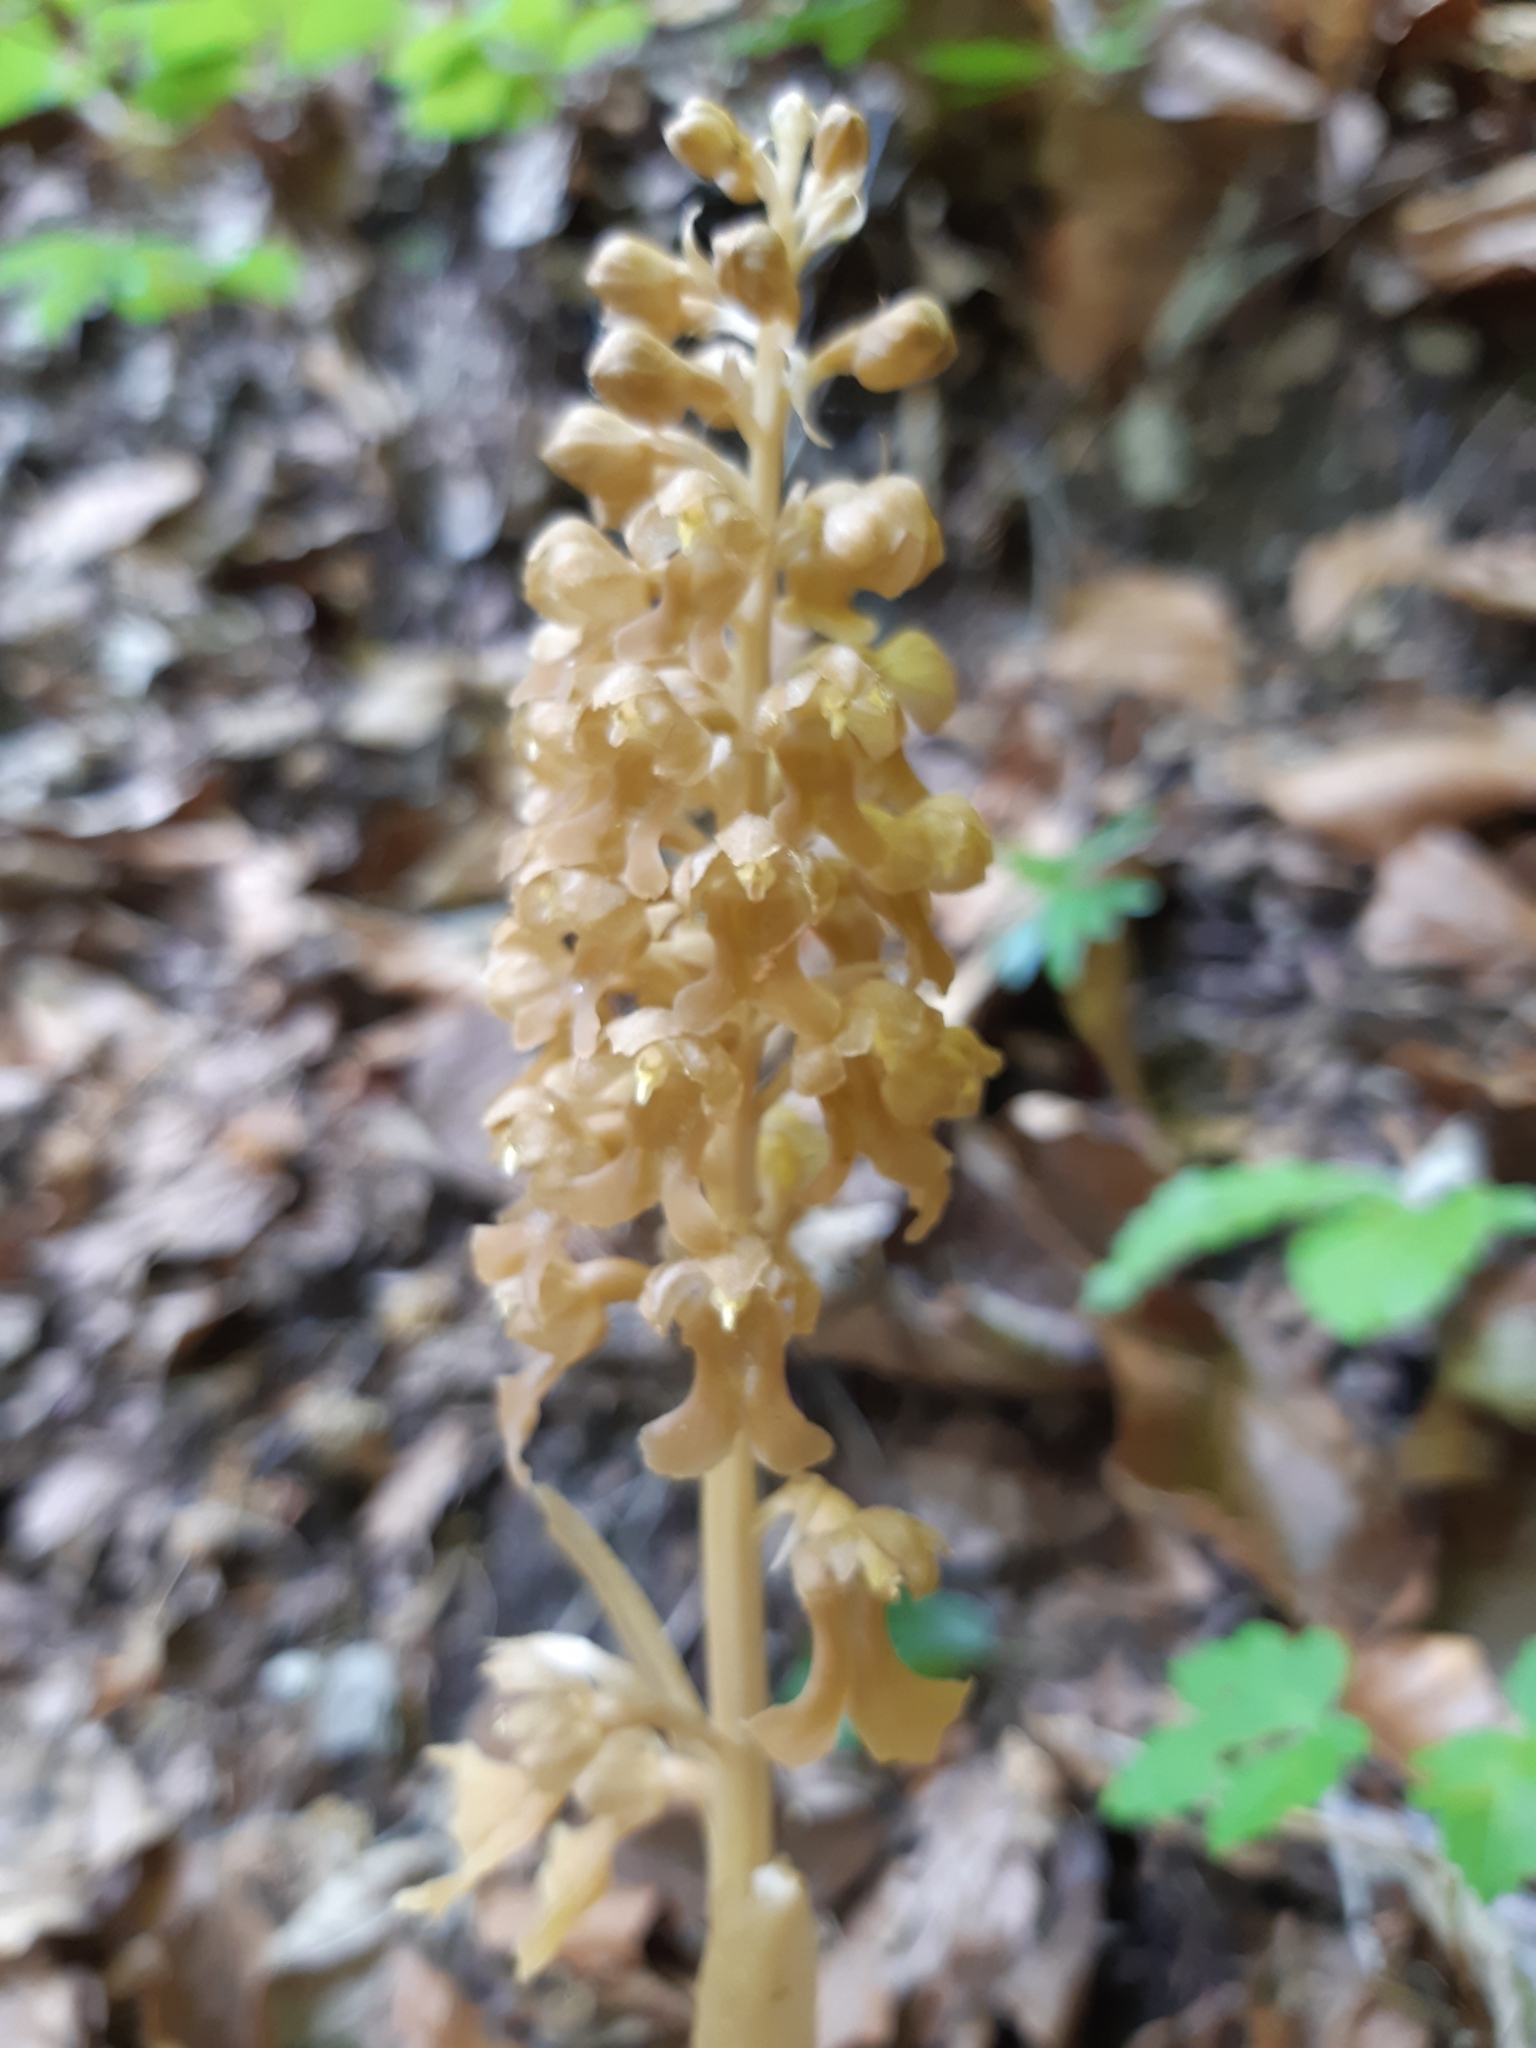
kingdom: Plantae
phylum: Tracheophyta
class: Liliopsida
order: Asparagales
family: Orchidaceae
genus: Neottia
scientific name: Neottia nidus-avis
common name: Bird's-nest orchid
